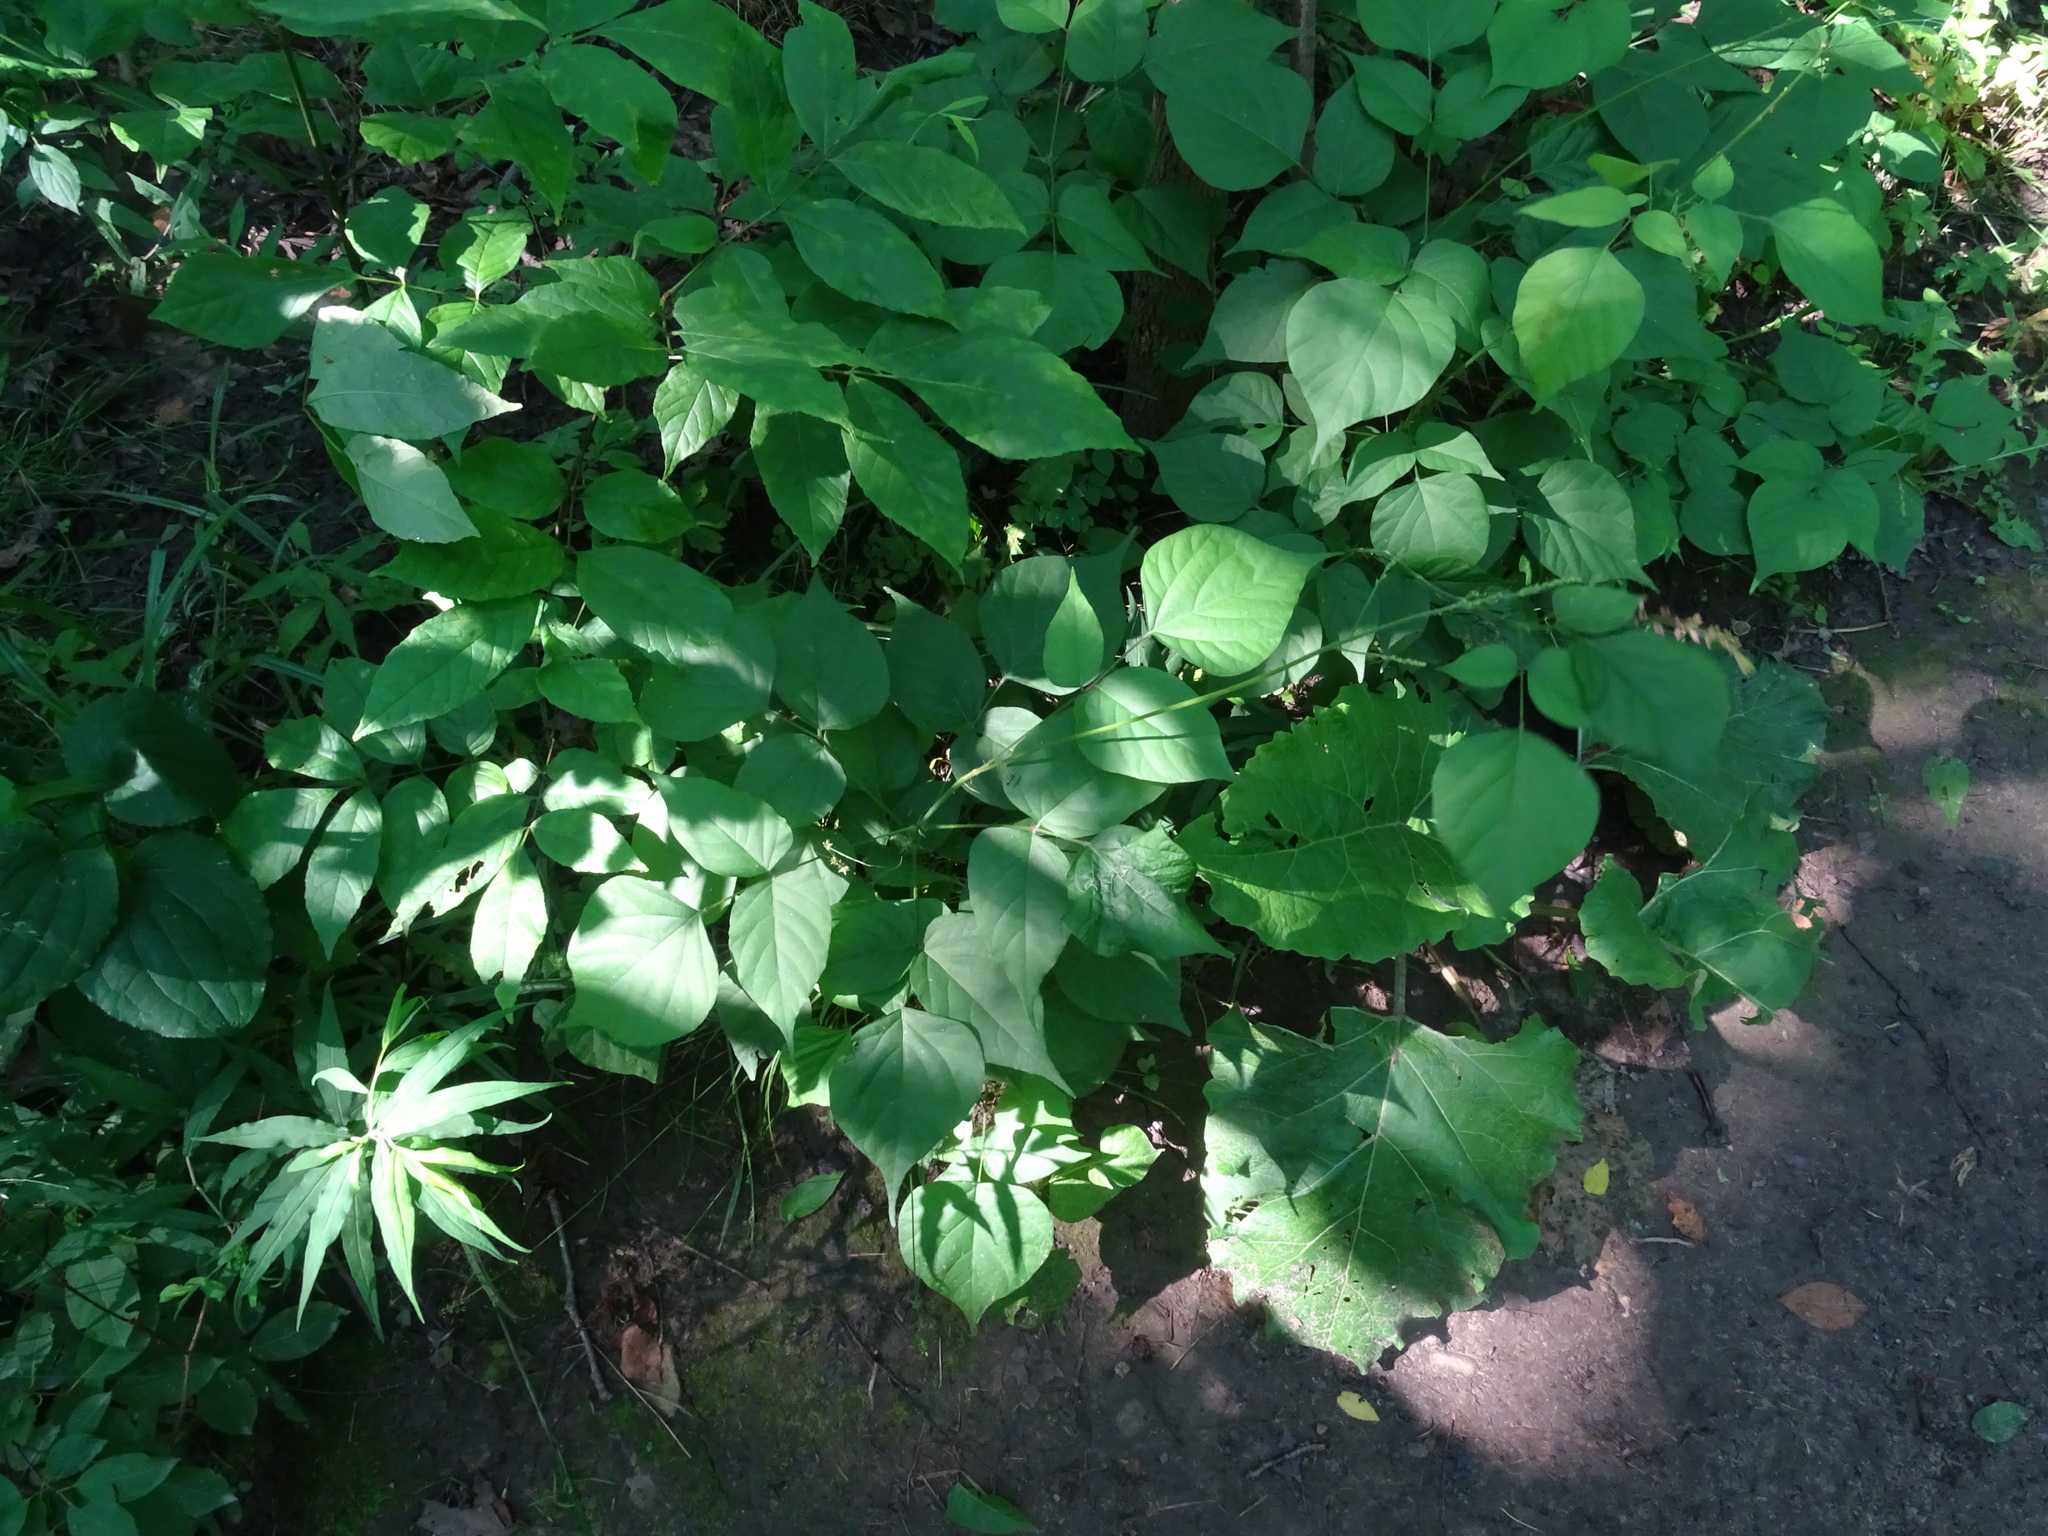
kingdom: Plantae
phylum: Tracheophyta
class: Magnoliopsida
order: Fabales
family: Fabaceae
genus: Hylodesmum
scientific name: Hylodesmum glutinosum
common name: Clustered-leaved tick-trefoil
